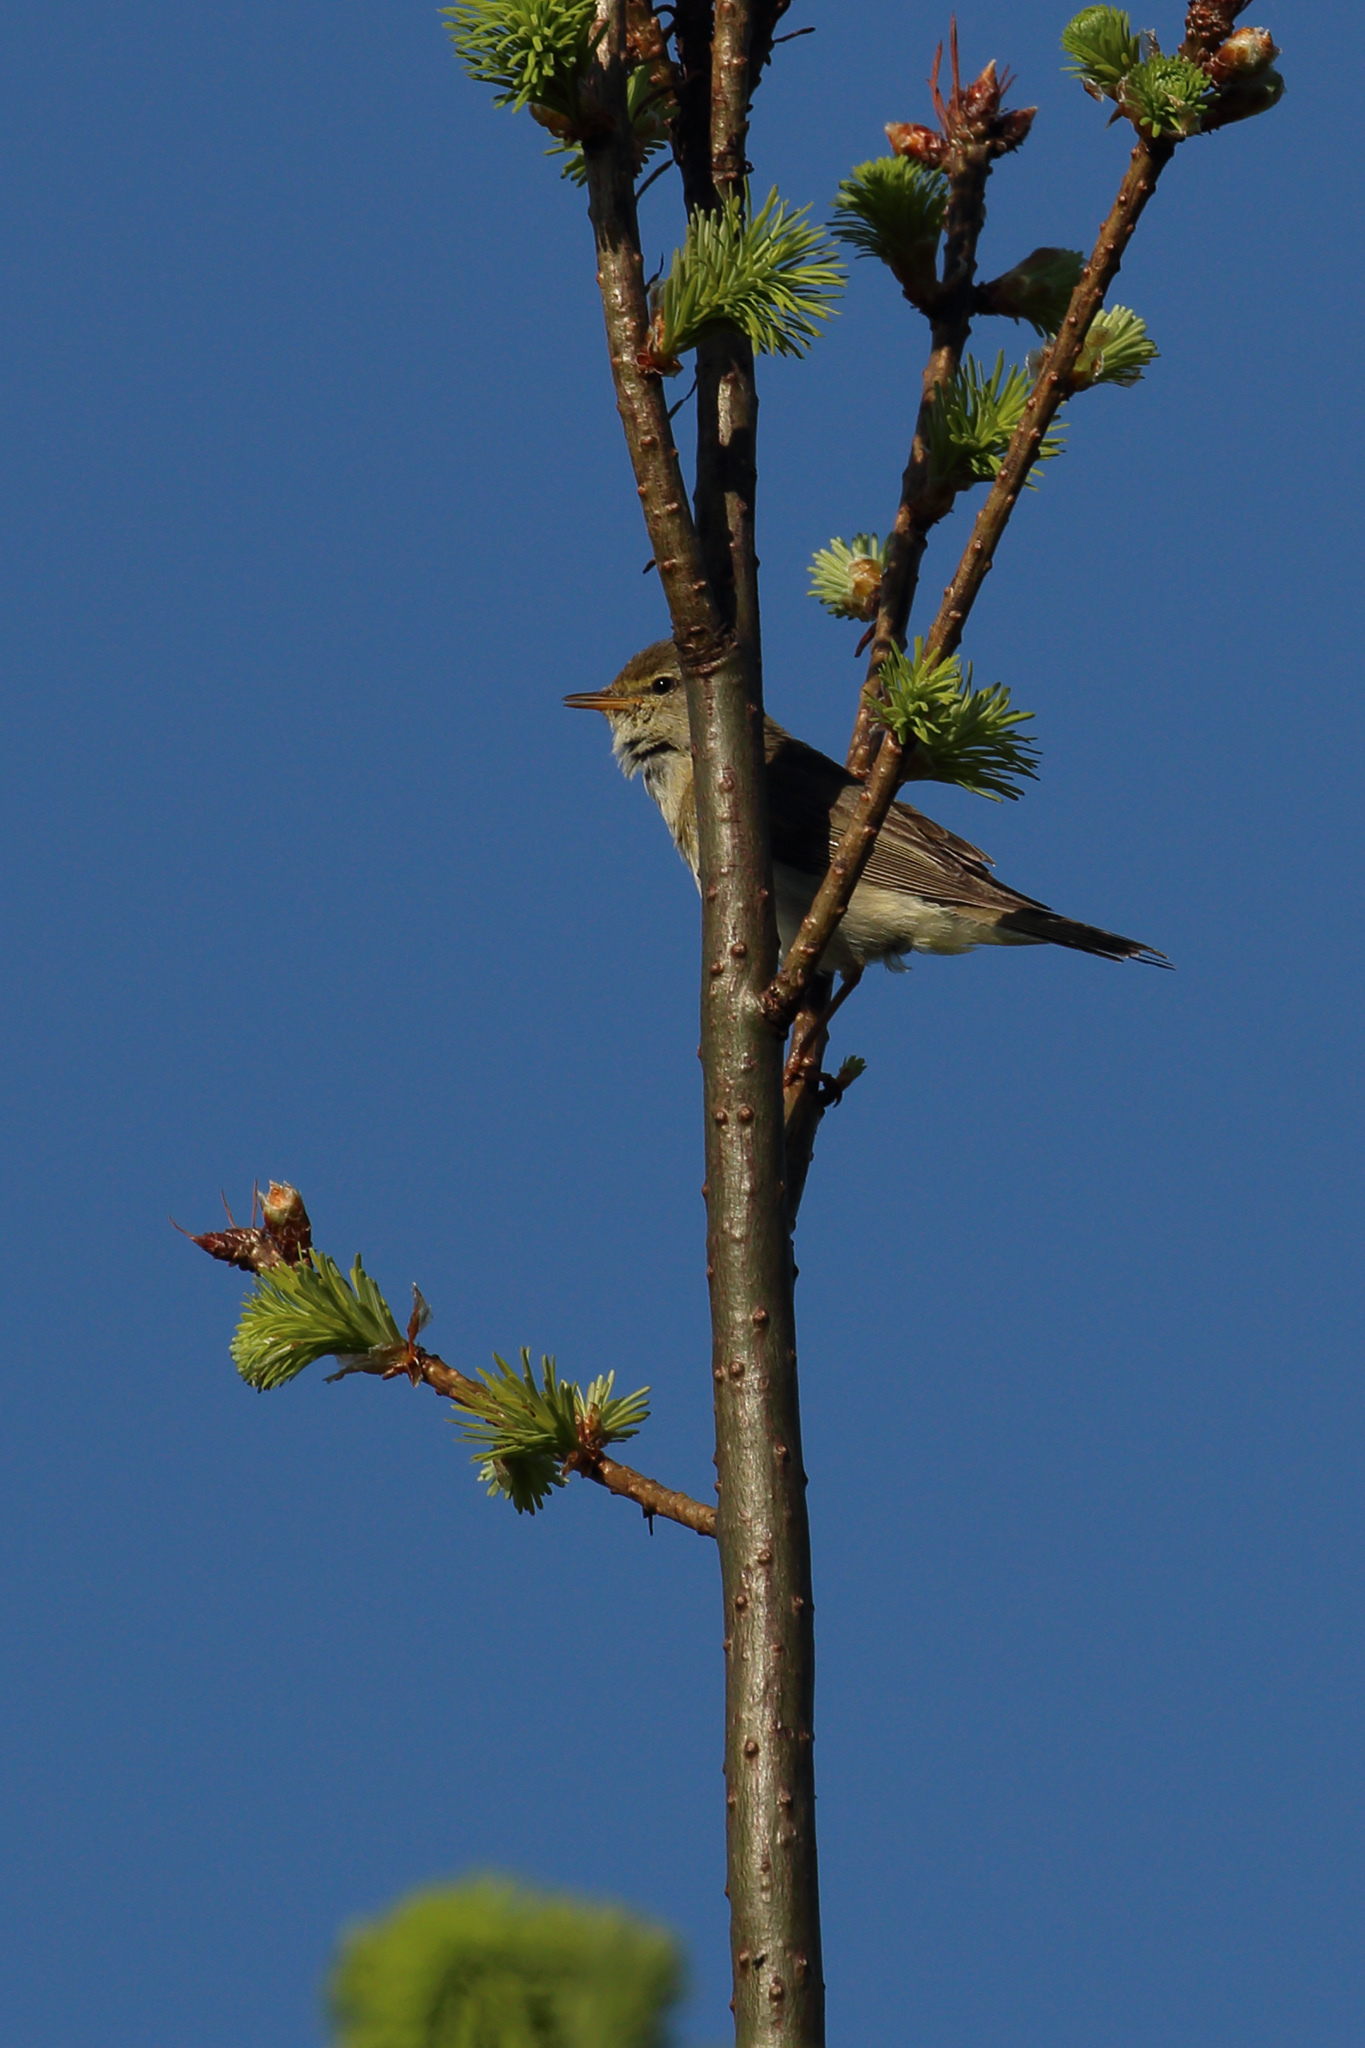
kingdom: Animalia
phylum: Chordata
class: Aves
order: Passeriformes
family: Sylviidae
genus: Sylvia
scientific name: Sylvia communis
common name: Common whitethroat
